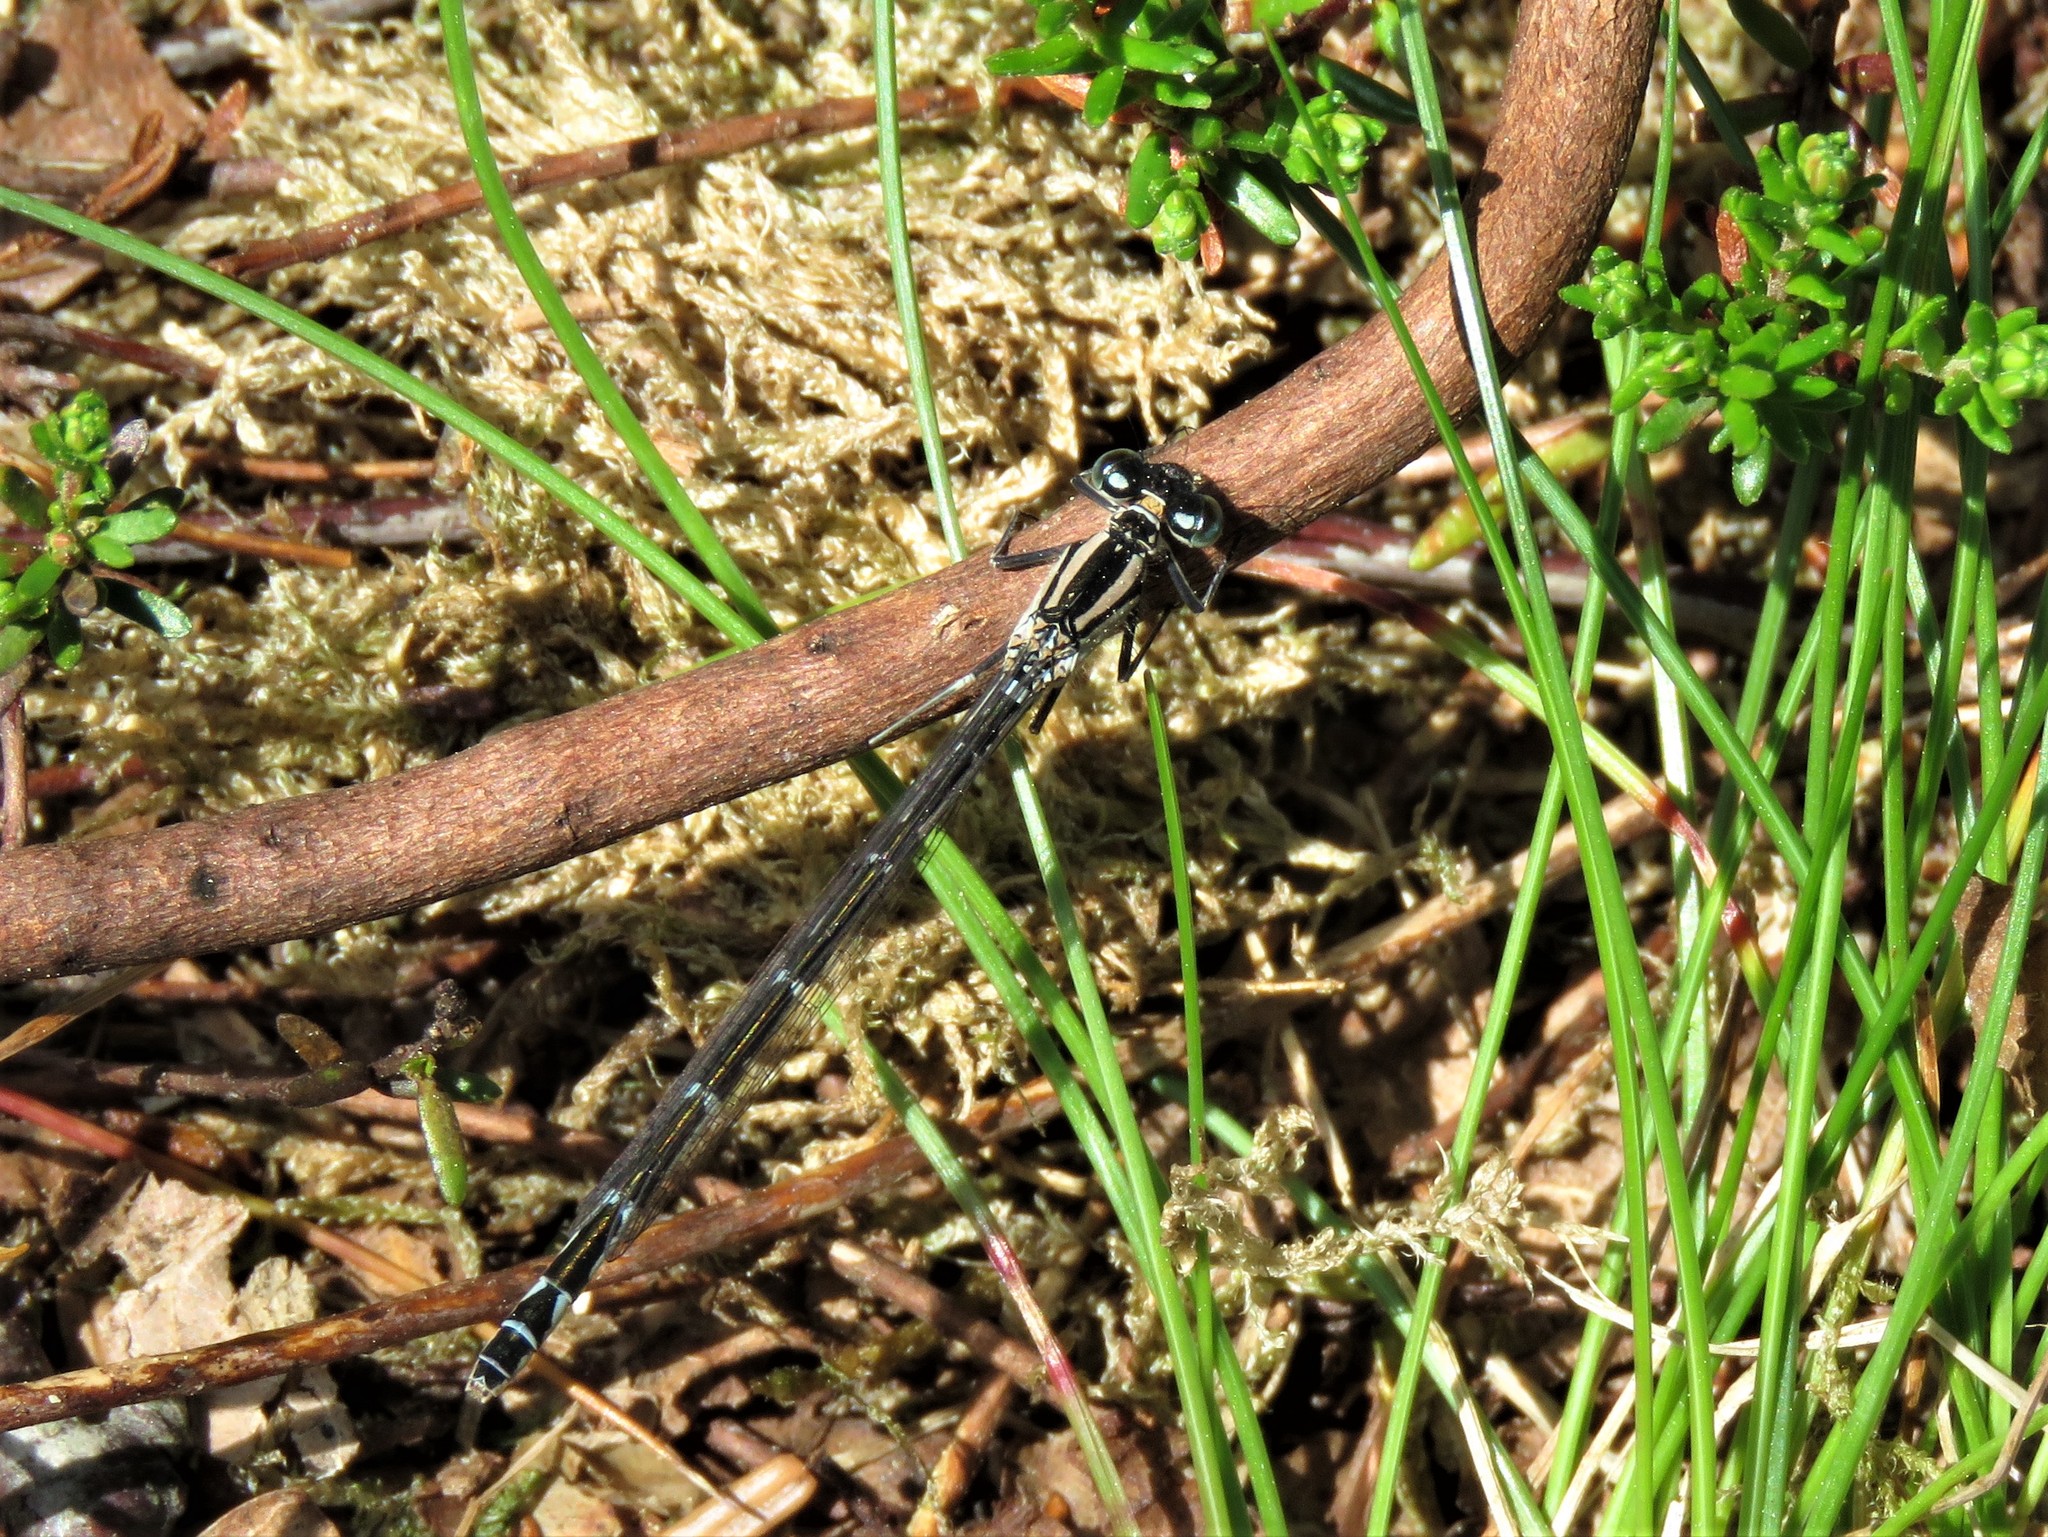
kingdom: Animalia
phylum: Arthropoda
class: Insecta
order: Odonata
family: Coenagrionidae
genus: Enallagma
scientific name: Enallagma cyathigerum
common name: Common blue damselfly
